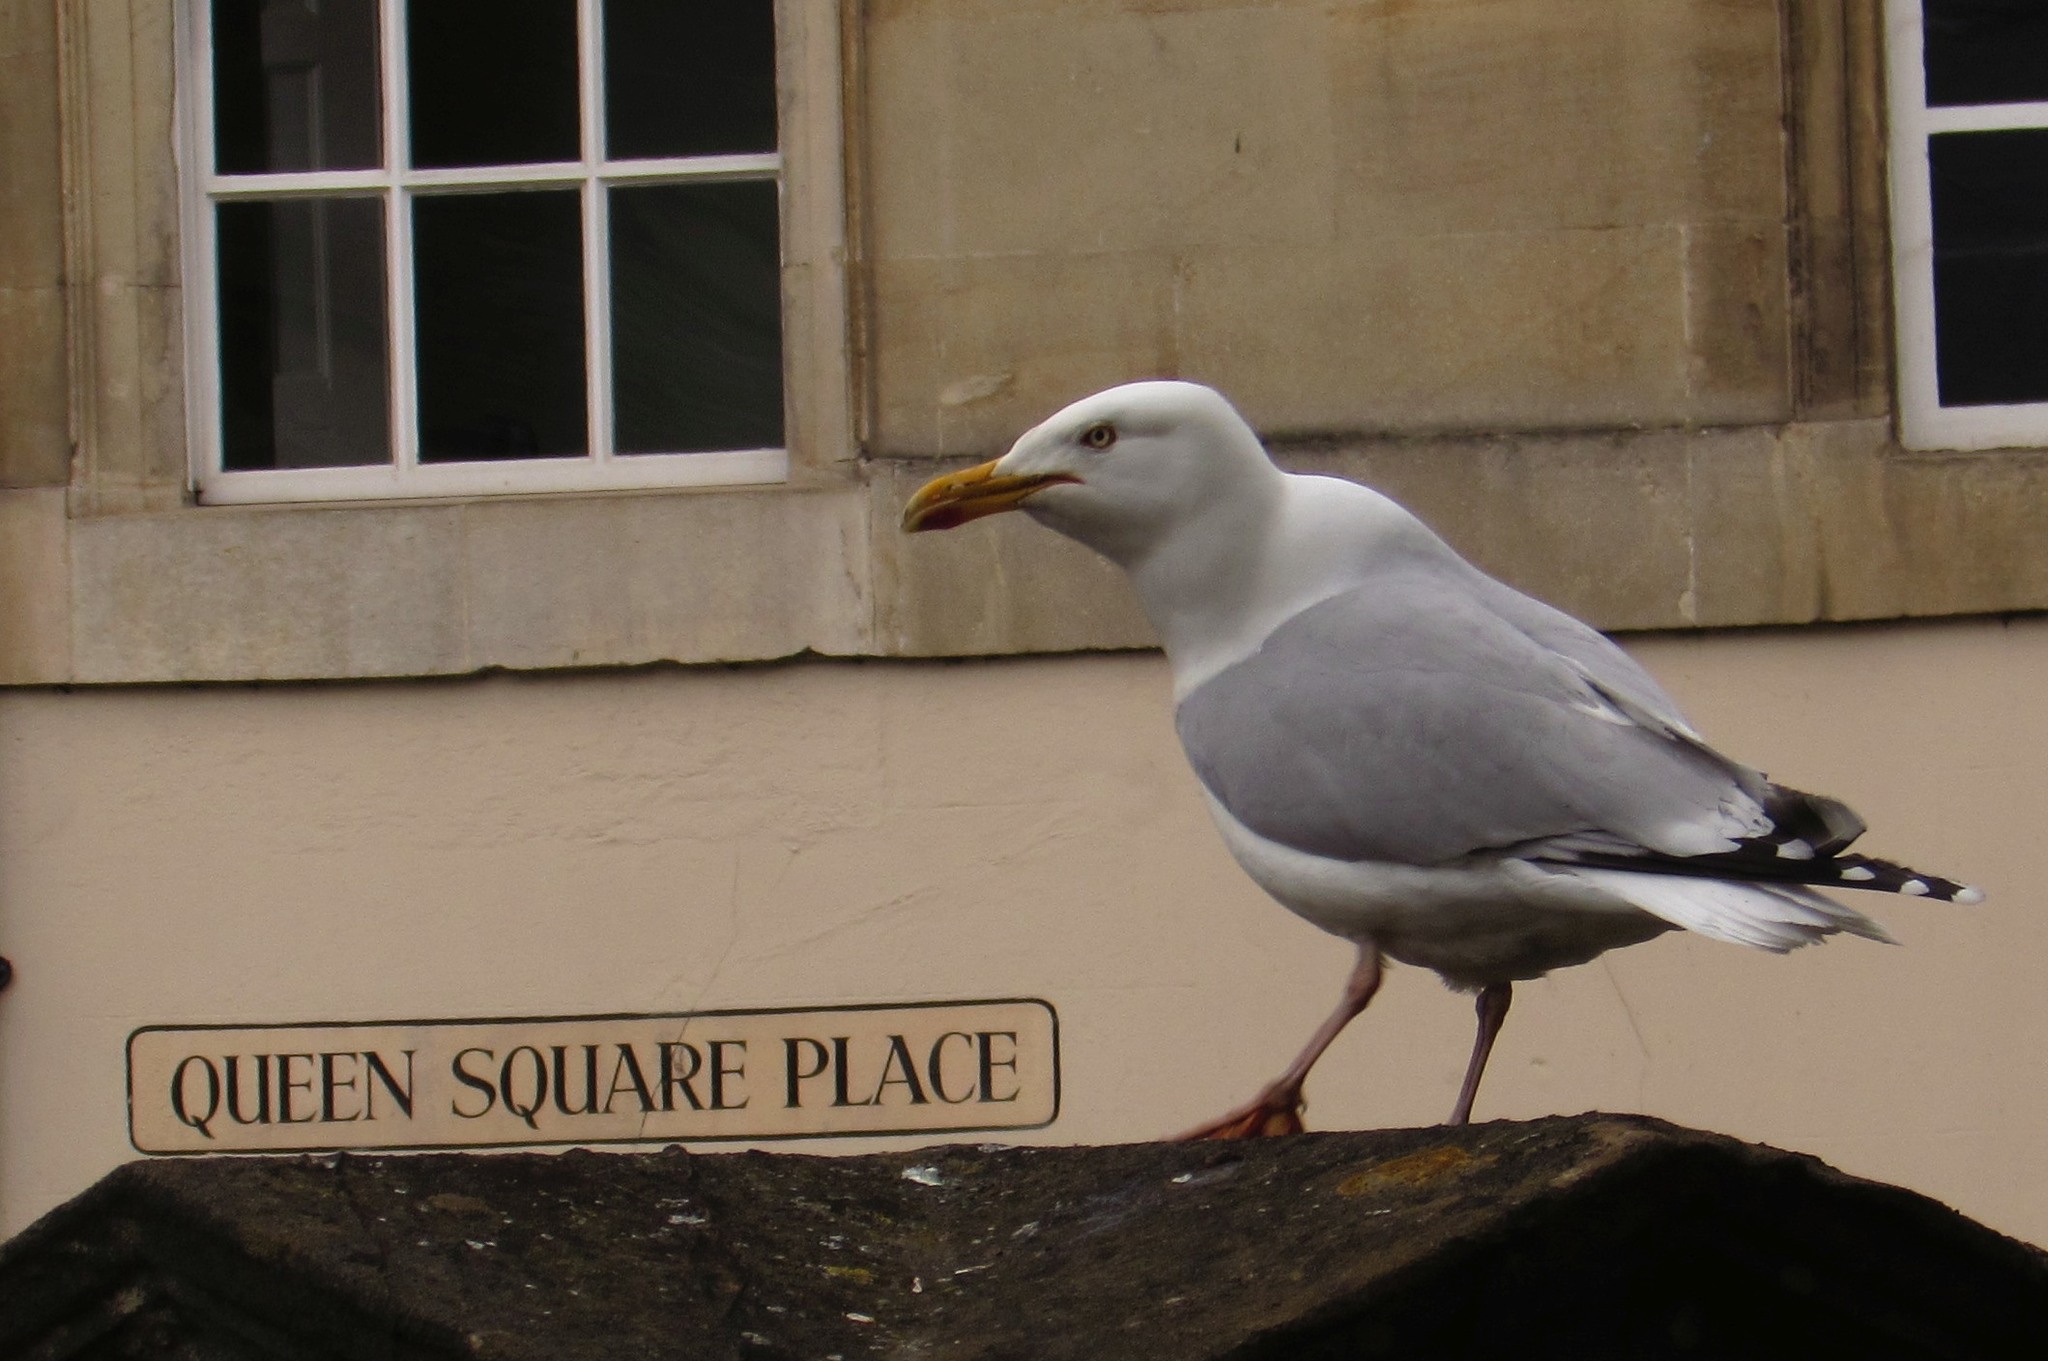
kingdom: Animalia
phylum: Chordata
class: Aves
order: Charadriiformes
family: Laridae
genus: Larus
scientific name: Larus argentatus
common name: Herring gull
